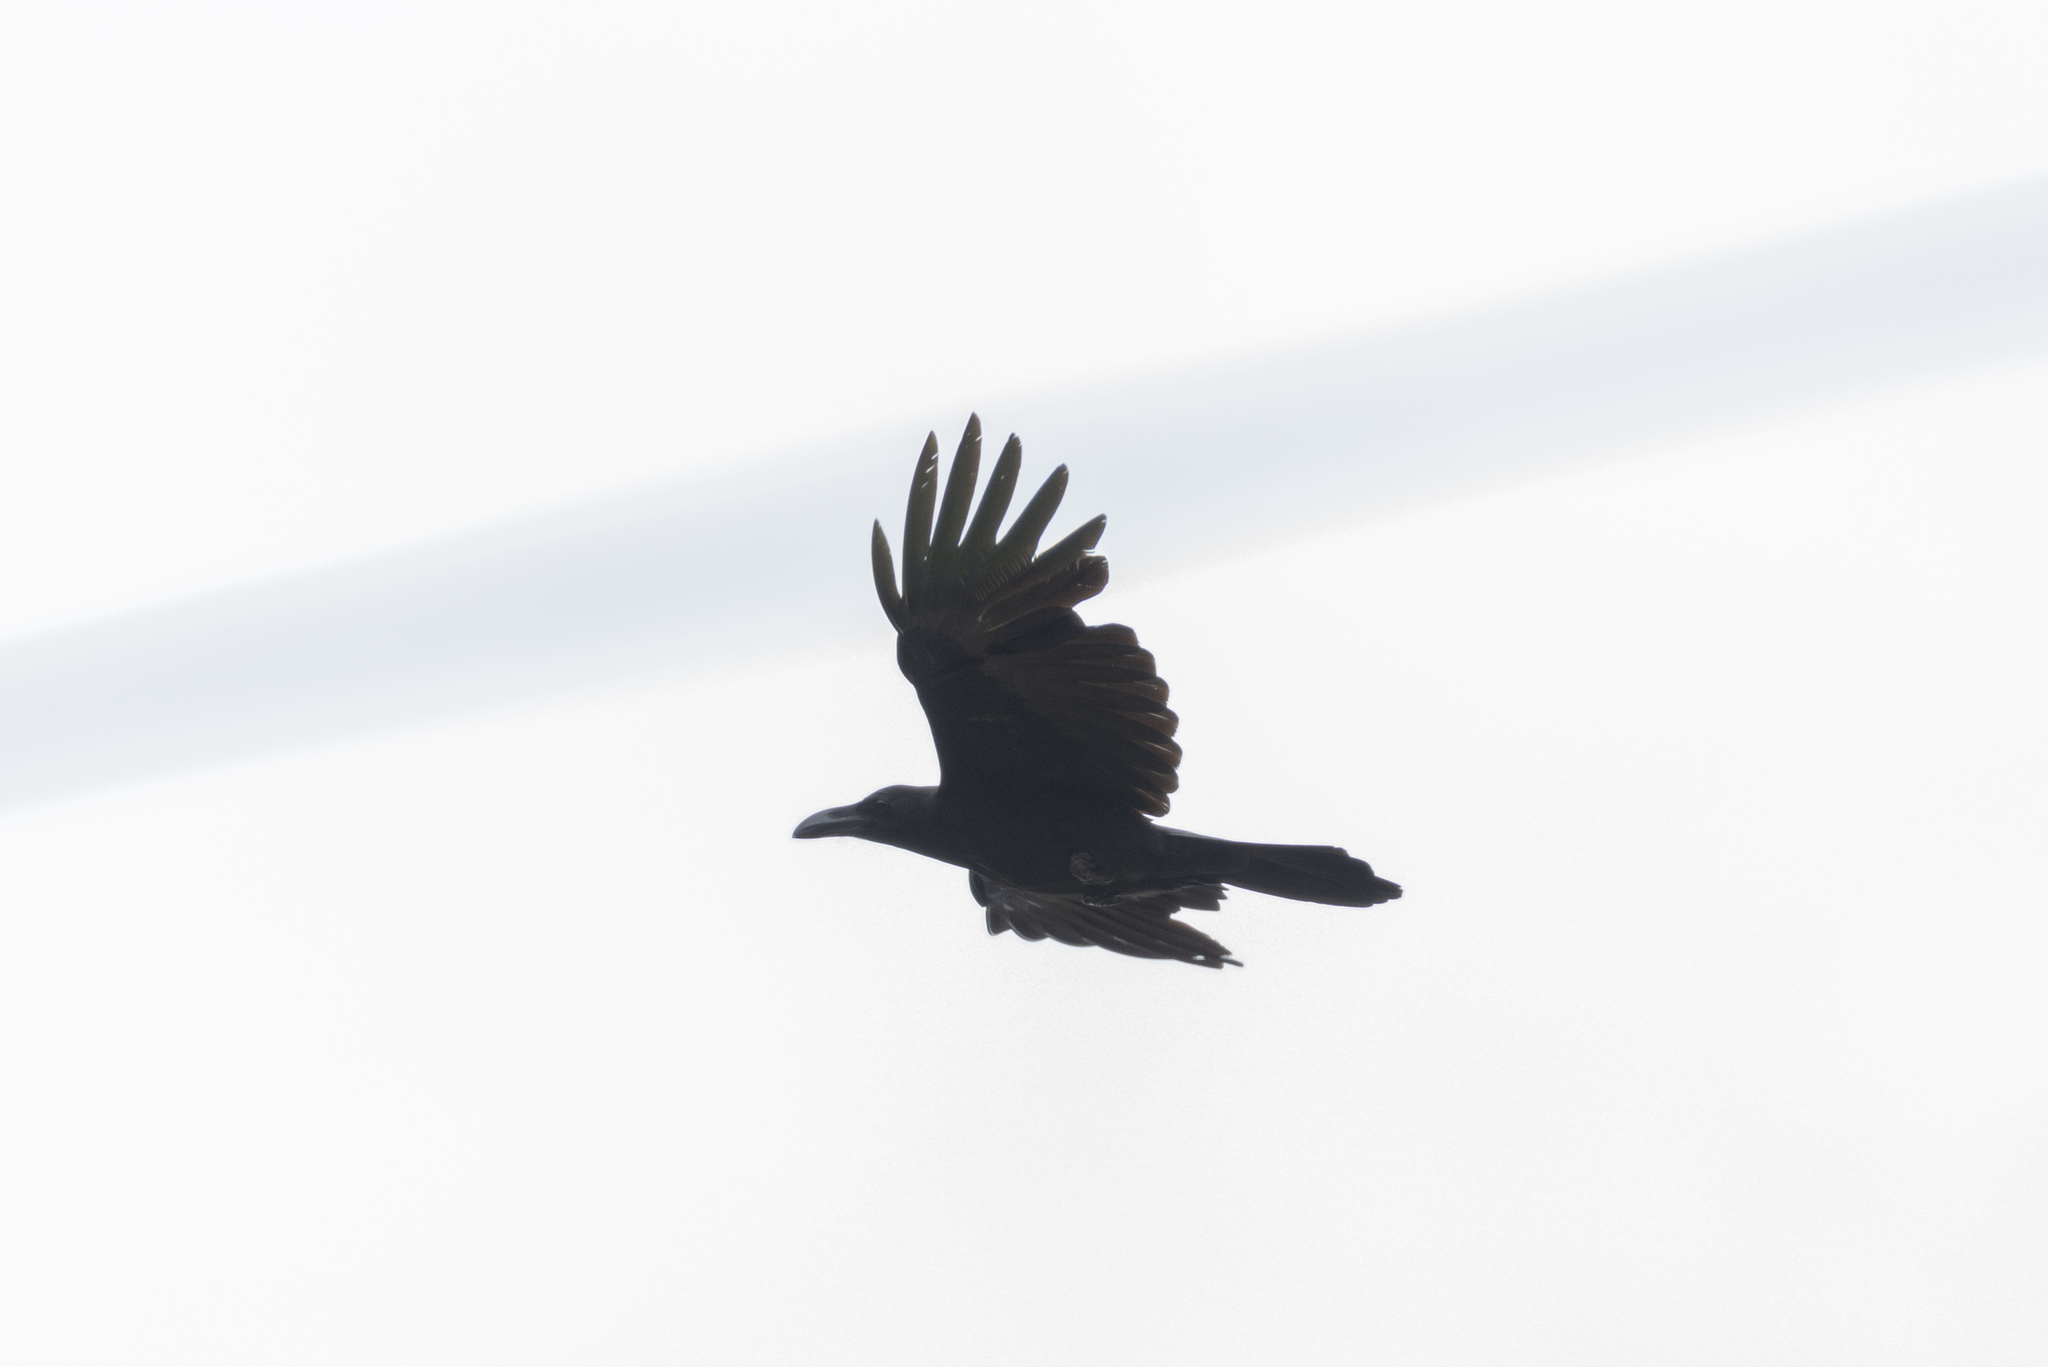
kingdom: Animalia
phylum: Chordata
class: Aves
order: Passeriformes
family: Corvidae
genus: Corvus
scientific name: Corvus macrorhynchos
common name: Large-billed crow
